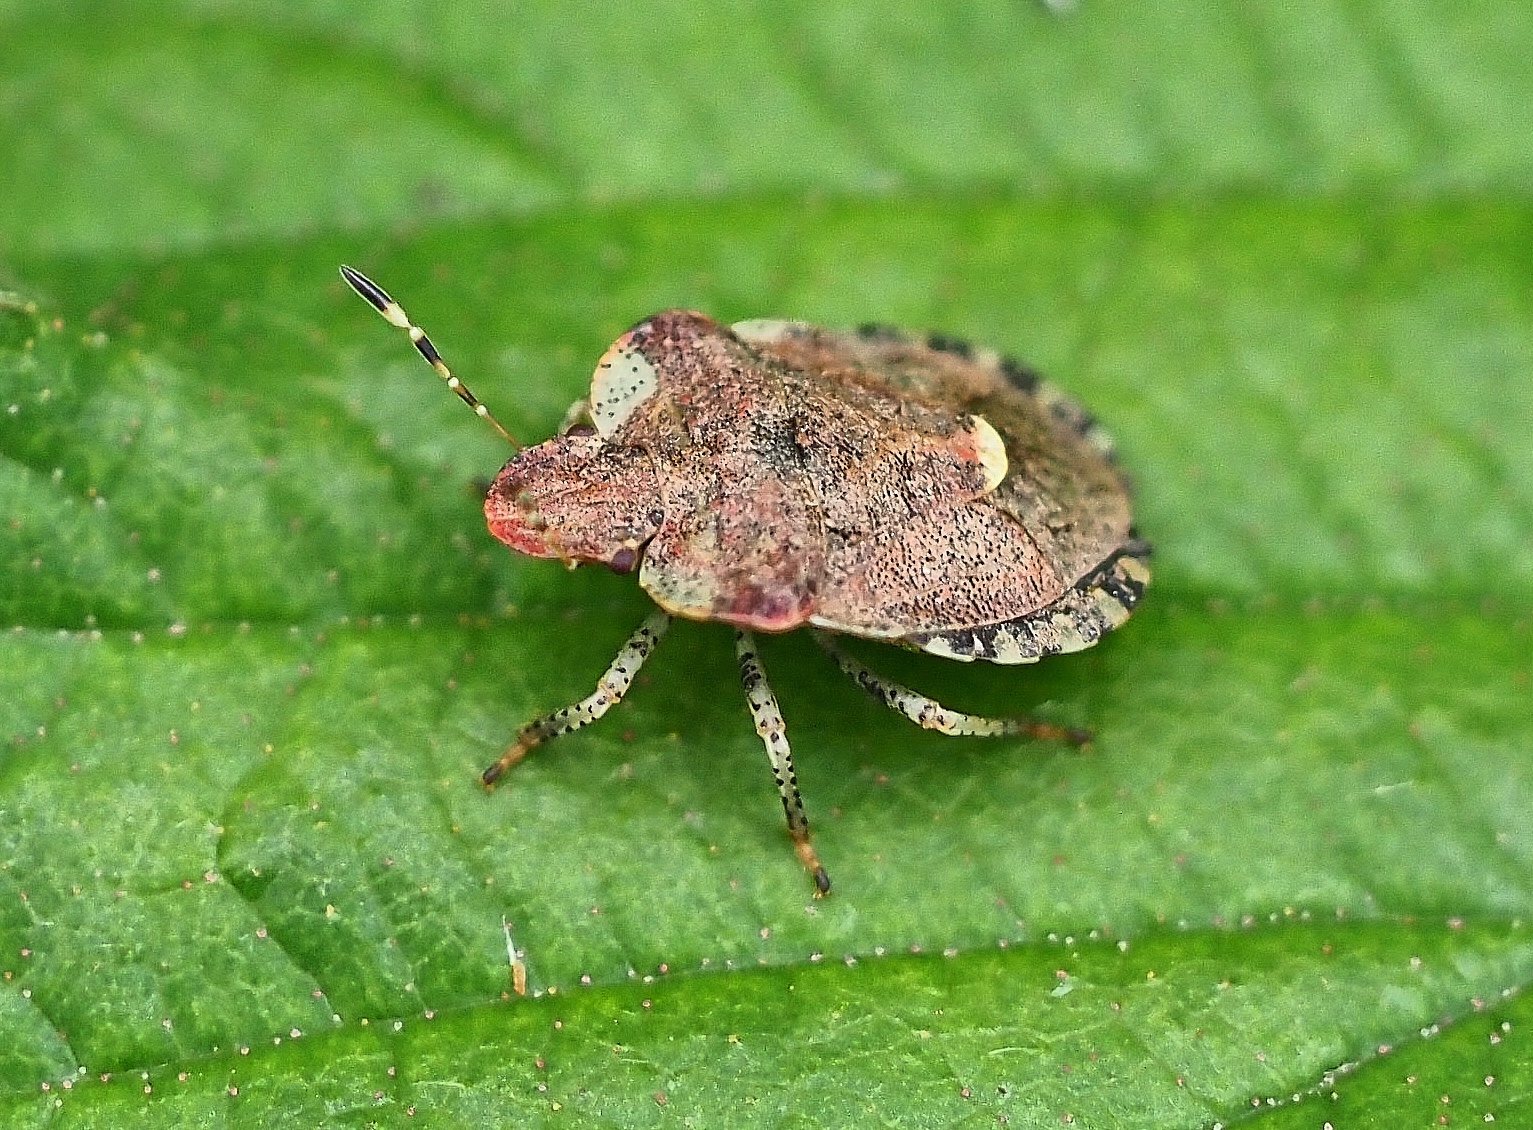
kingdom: Animalia
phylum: Arthropoda
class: Insecta
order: Hemiptera
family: Pentatomidae
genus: Dyroderes
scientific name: Dyroderes umbraculatus
